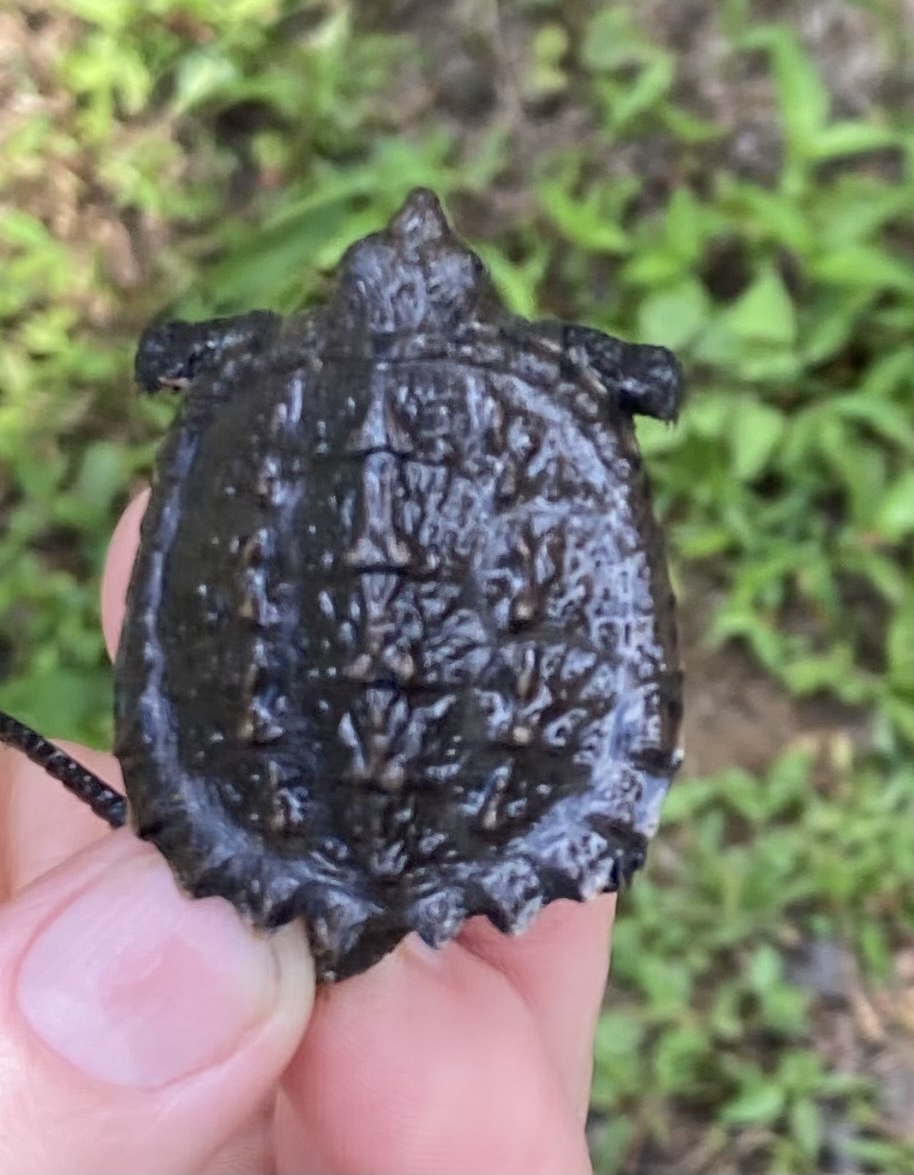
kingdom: Animalia
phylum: Chordata
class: Testudines
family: Chelydridae
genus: Chelydra
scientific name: Chelydra serpentina
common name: Common snapping turtle
